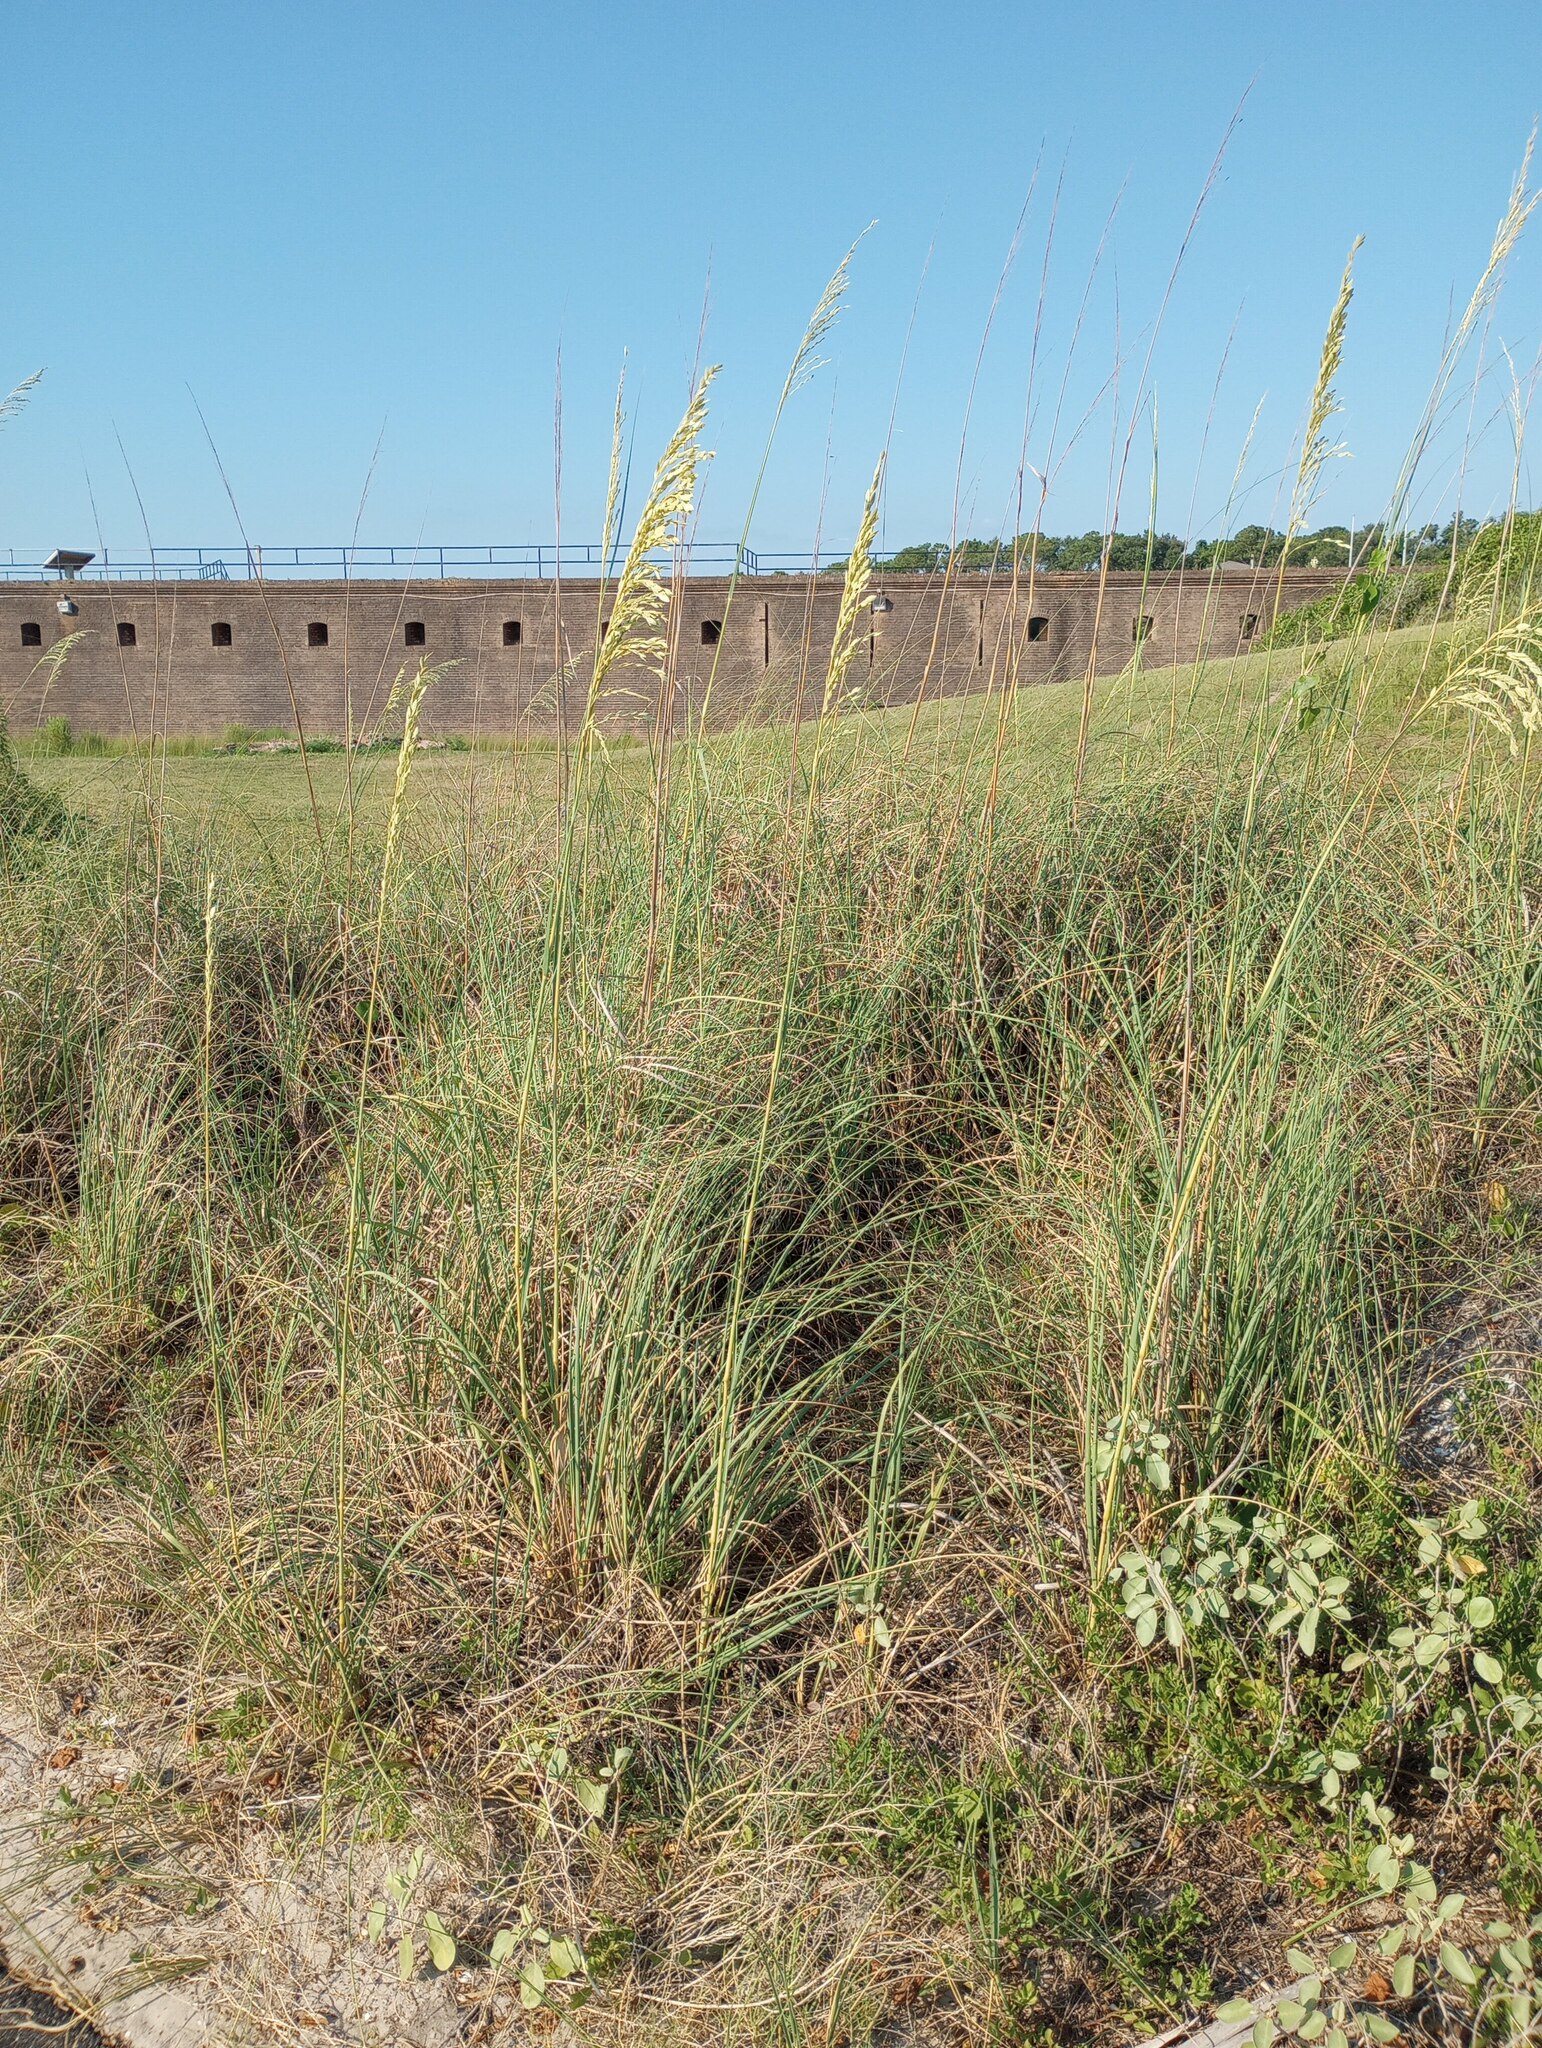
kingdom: Plantae
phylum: Tracheophyta
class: Liliopsida
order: Poales
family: Poaceae
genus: Uniola
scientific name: Uniola paniculata
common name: Seaside-oats
